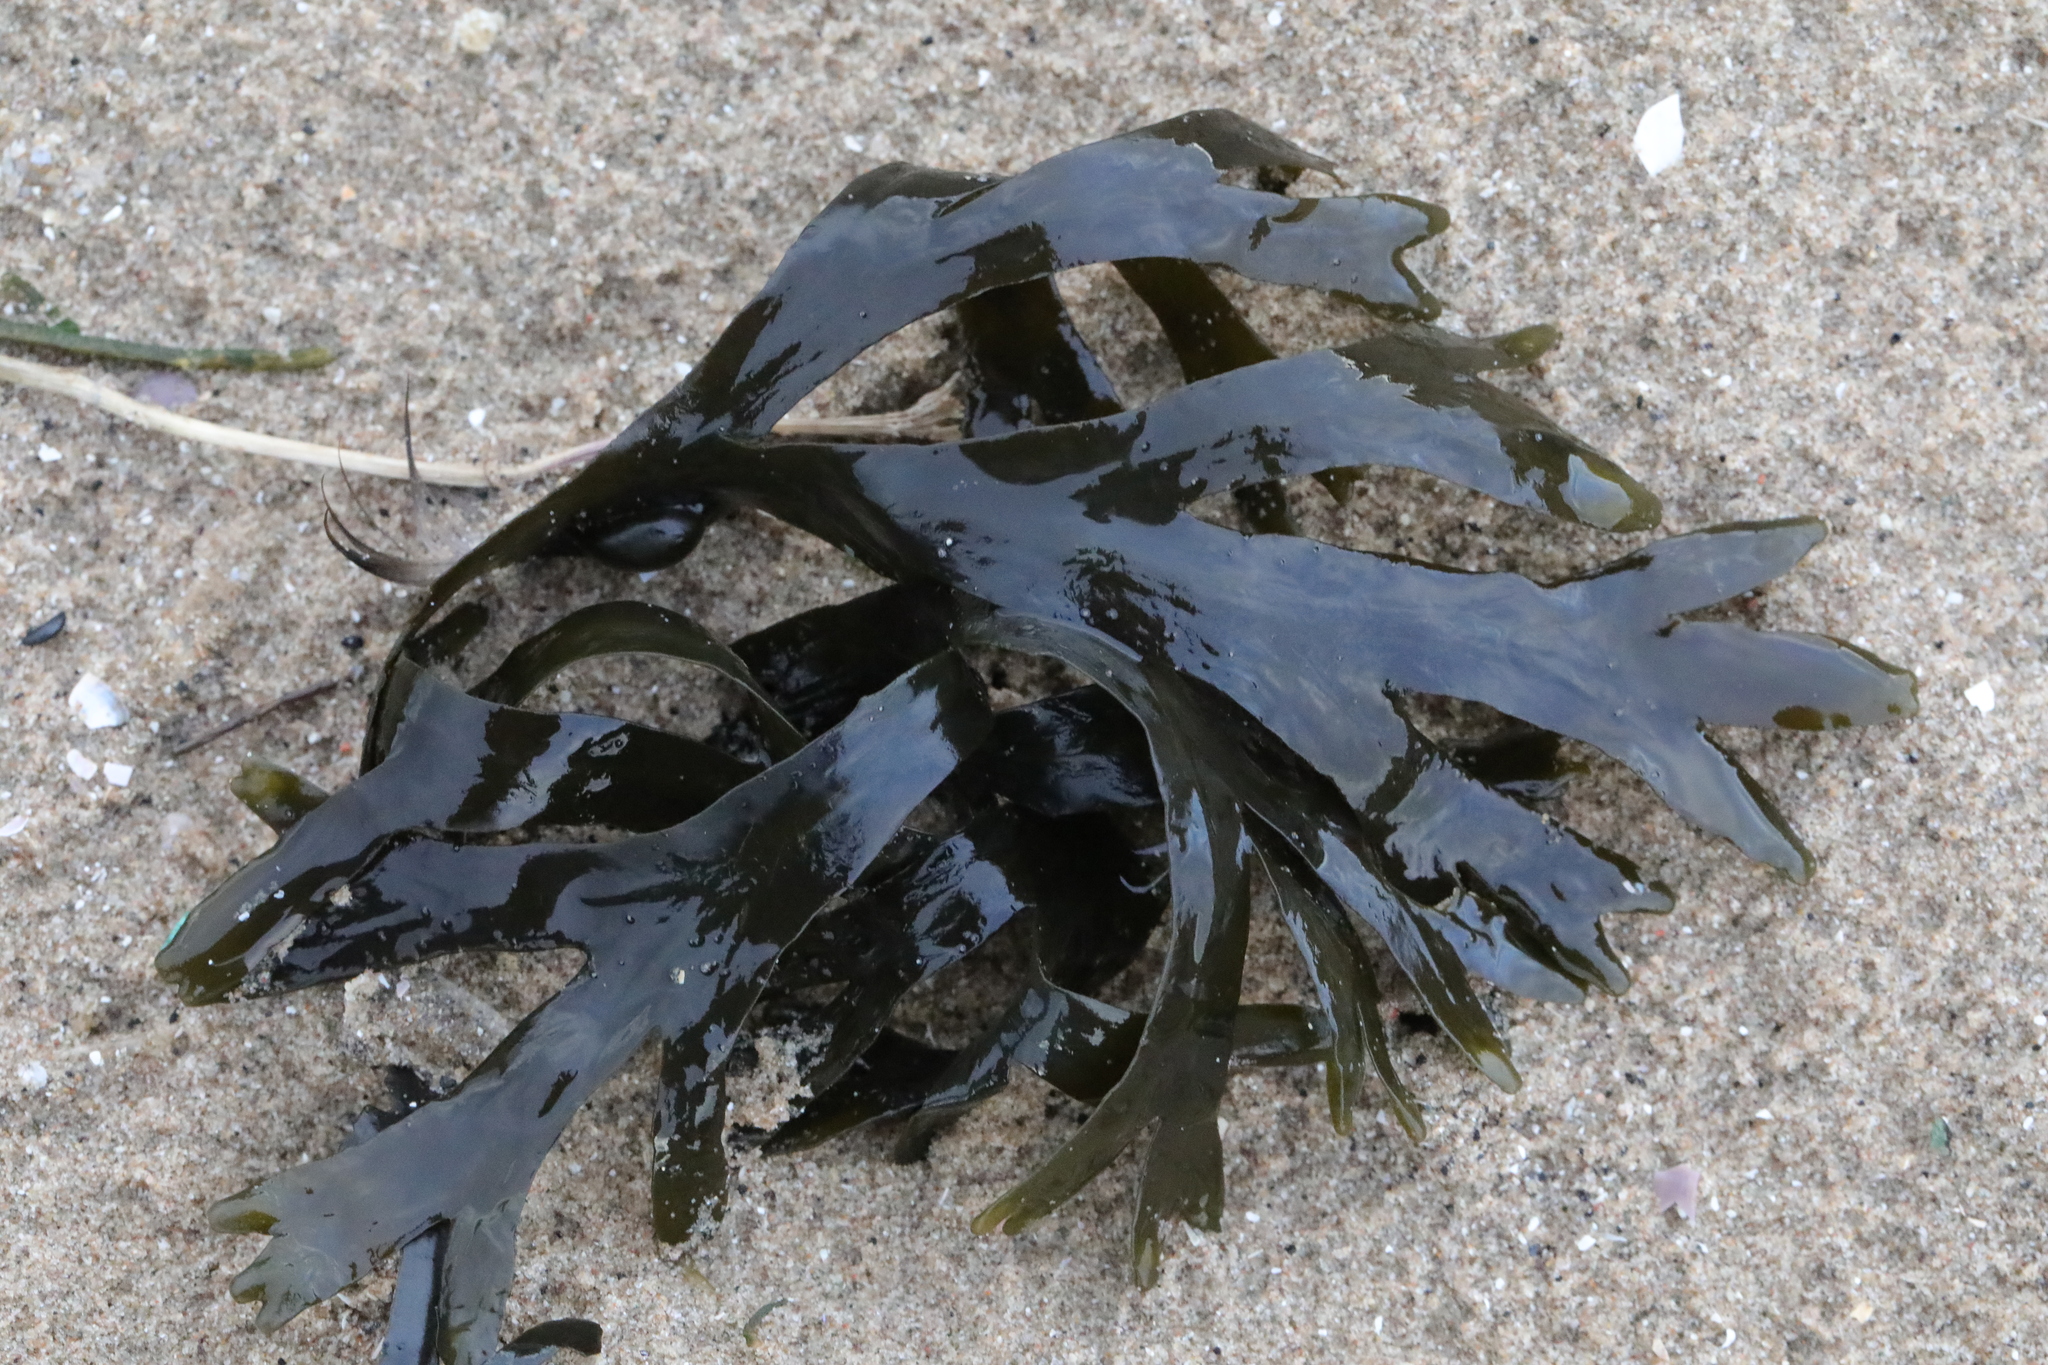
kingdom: Chromista
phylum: Ochrophyta
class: Phaeophyceae
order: Fucales
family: Fucaceae
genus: Fucus
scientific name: Fucus serratus
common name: Toothed wrack
